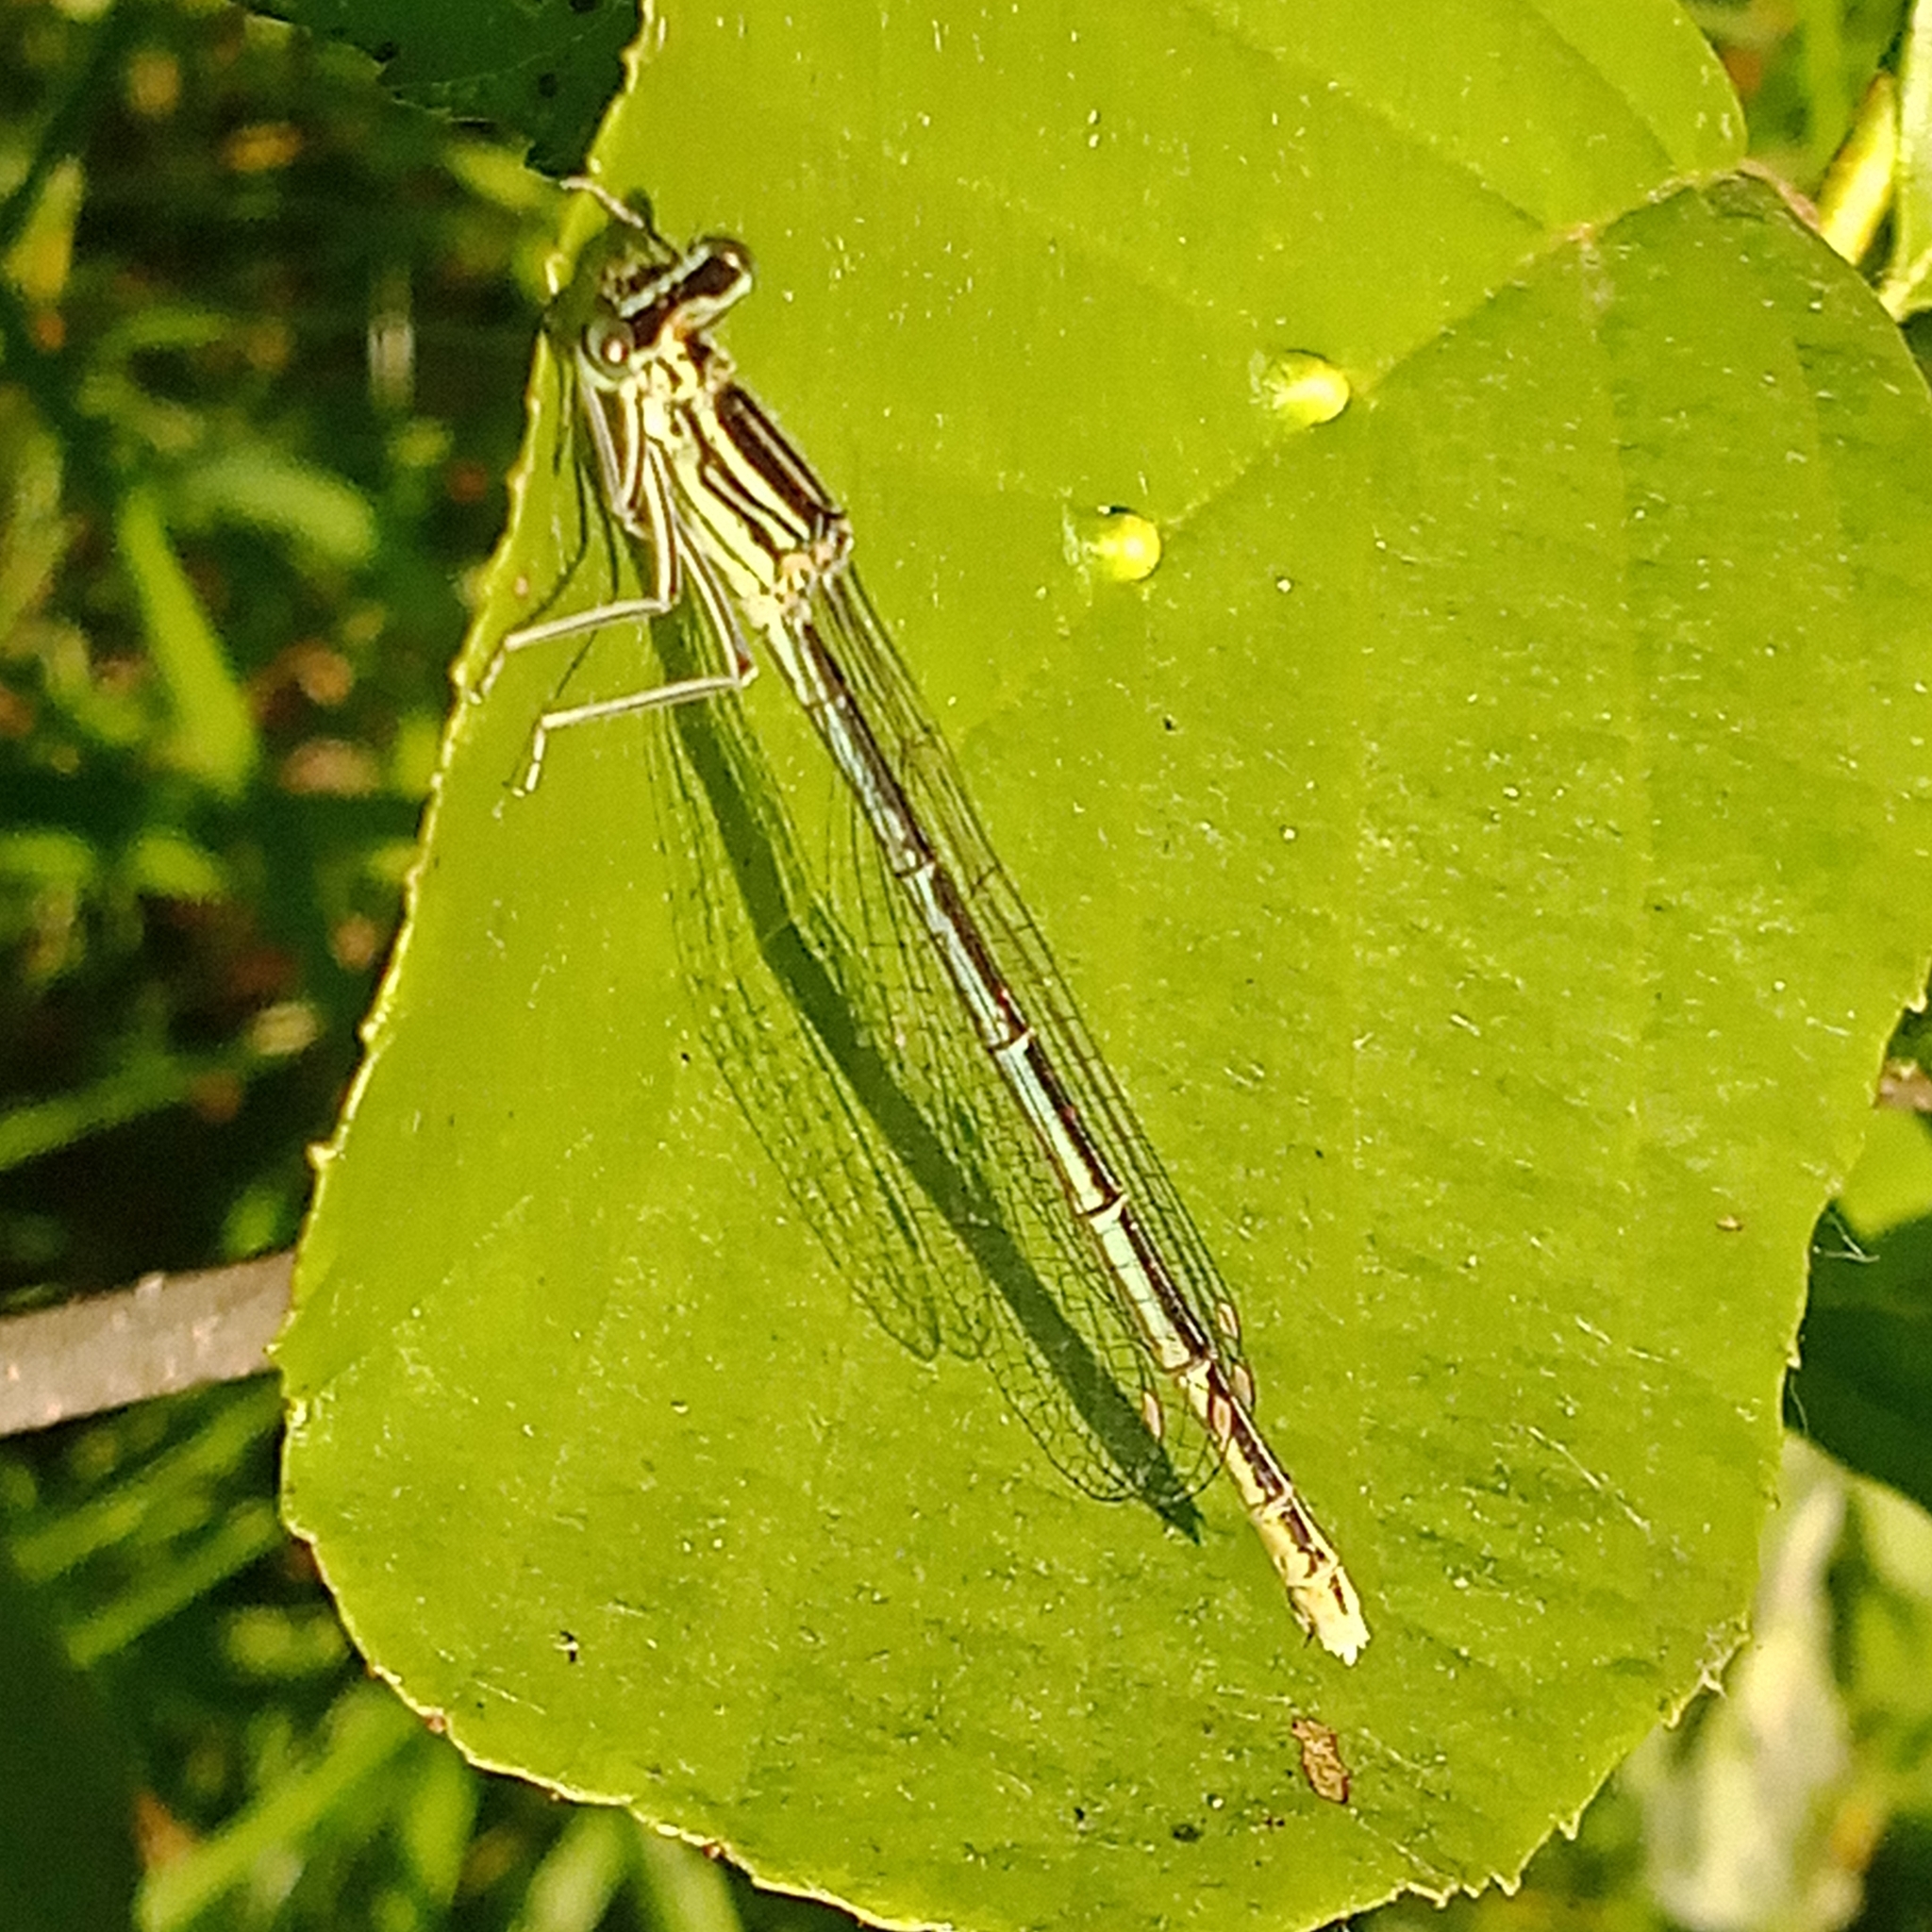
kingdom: Animalia
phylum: Arthropoda
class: Insecta
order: Odonata
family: Platycnemididae
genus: Platycnemis
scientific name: Platycnemis pennipes
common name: White-legged damselfly
